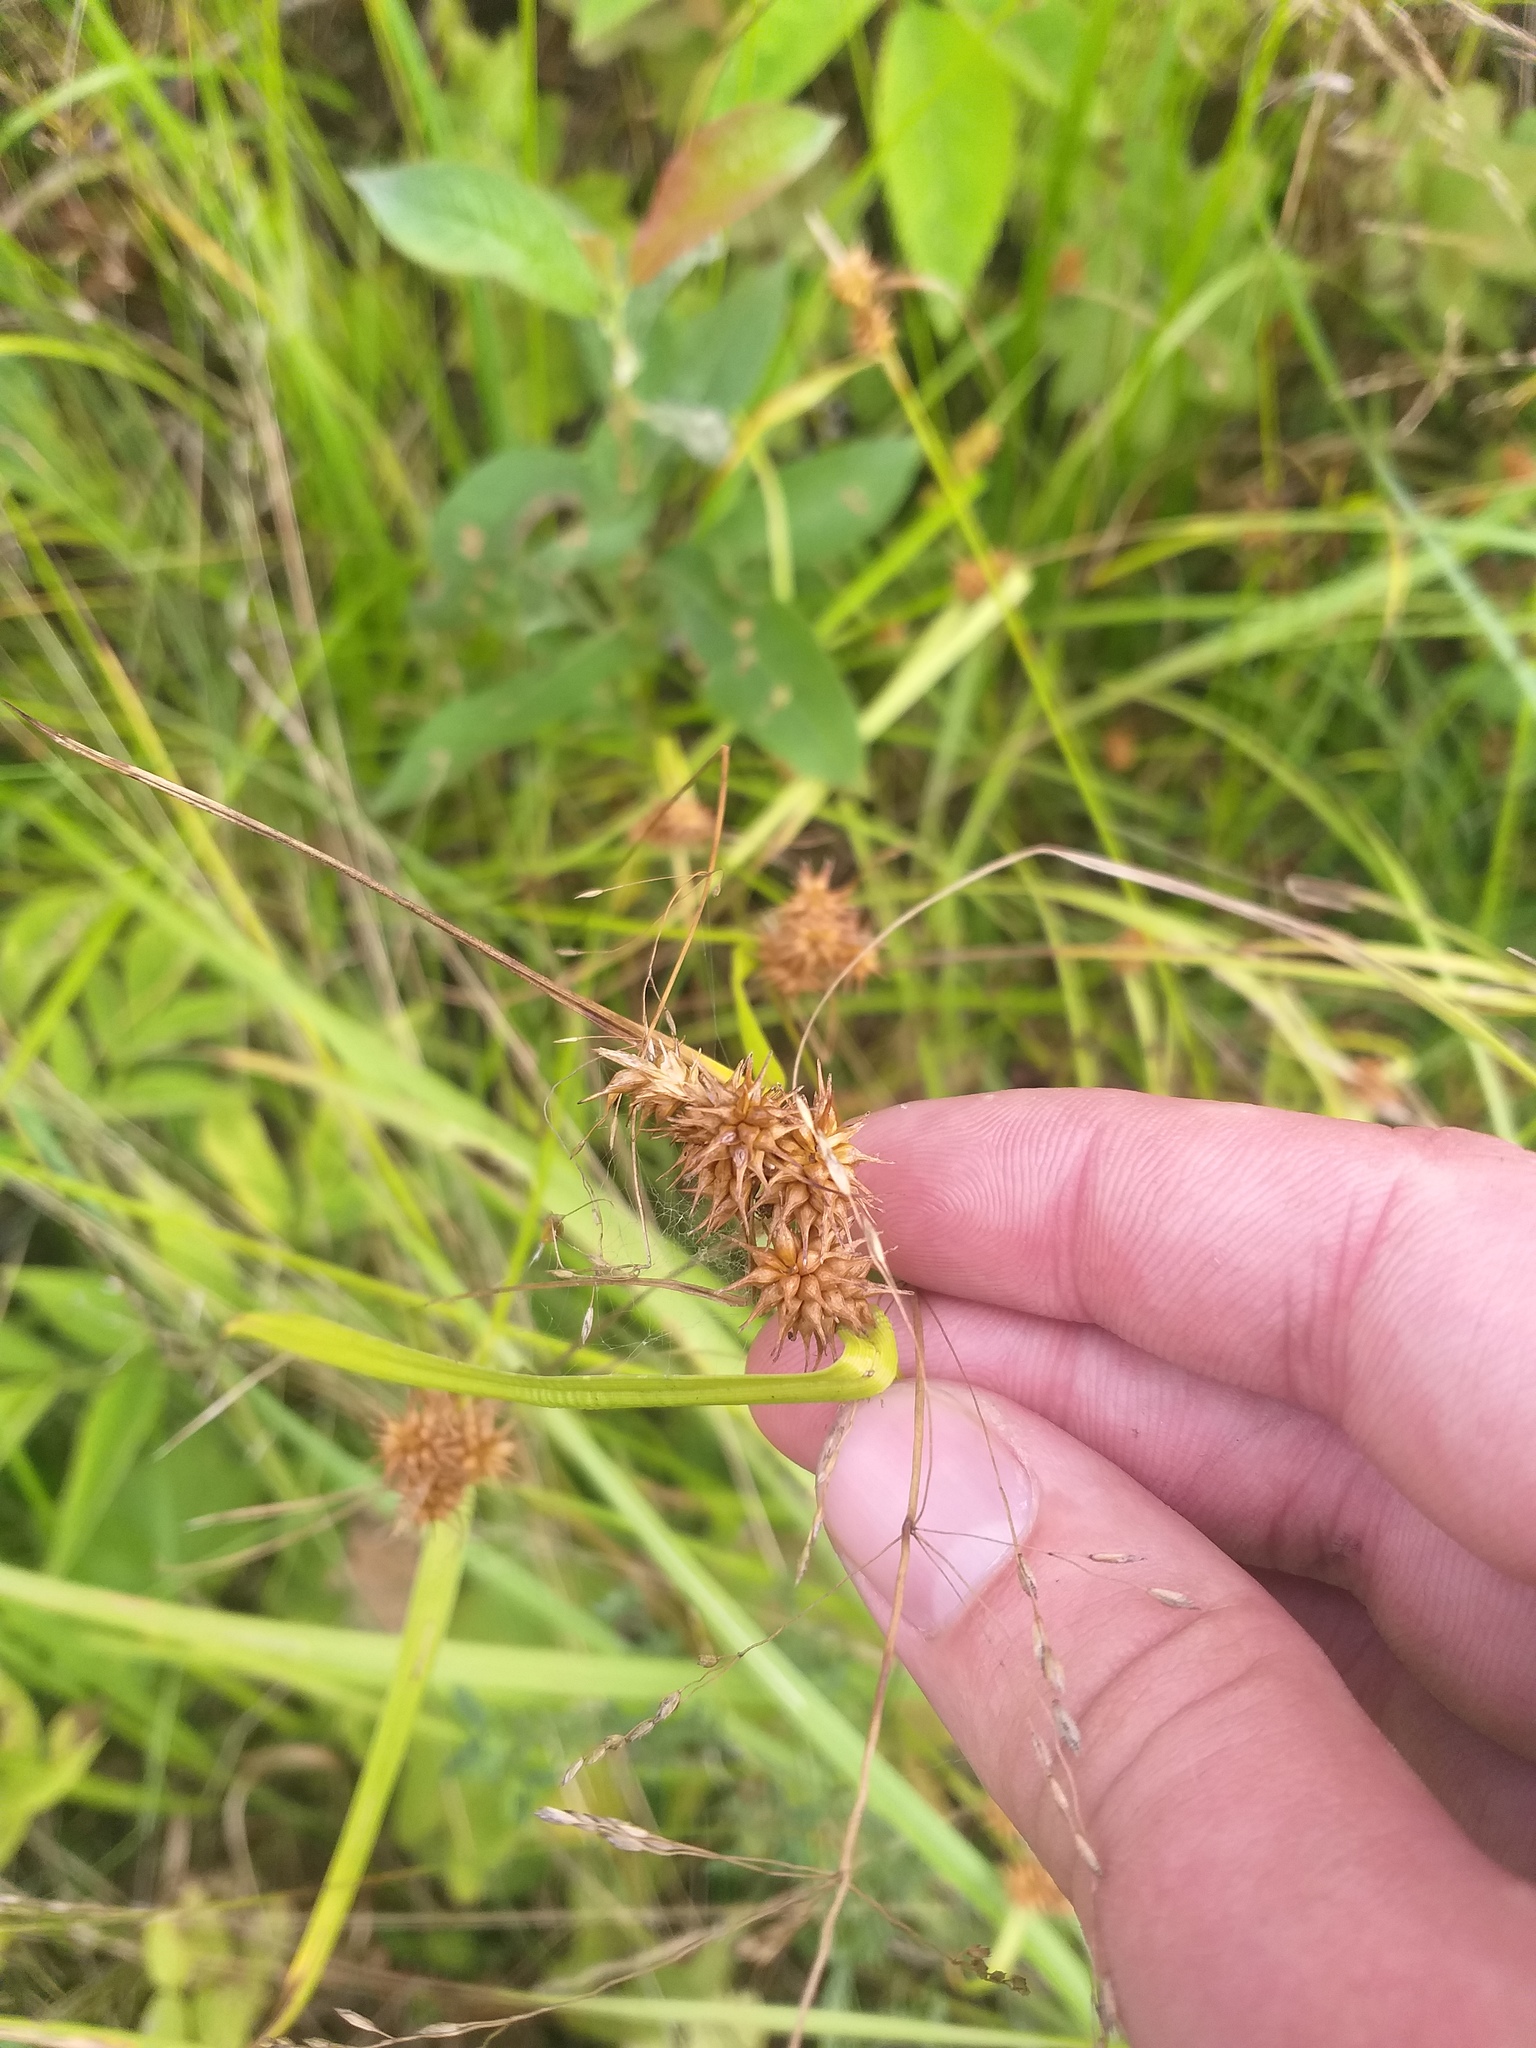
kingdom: Plantae
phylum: Tracheophyta
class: Liliopsida
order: Poales
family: Cyperaceae
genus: Carex
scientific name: Carex flava
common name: Large yellow-sedge
